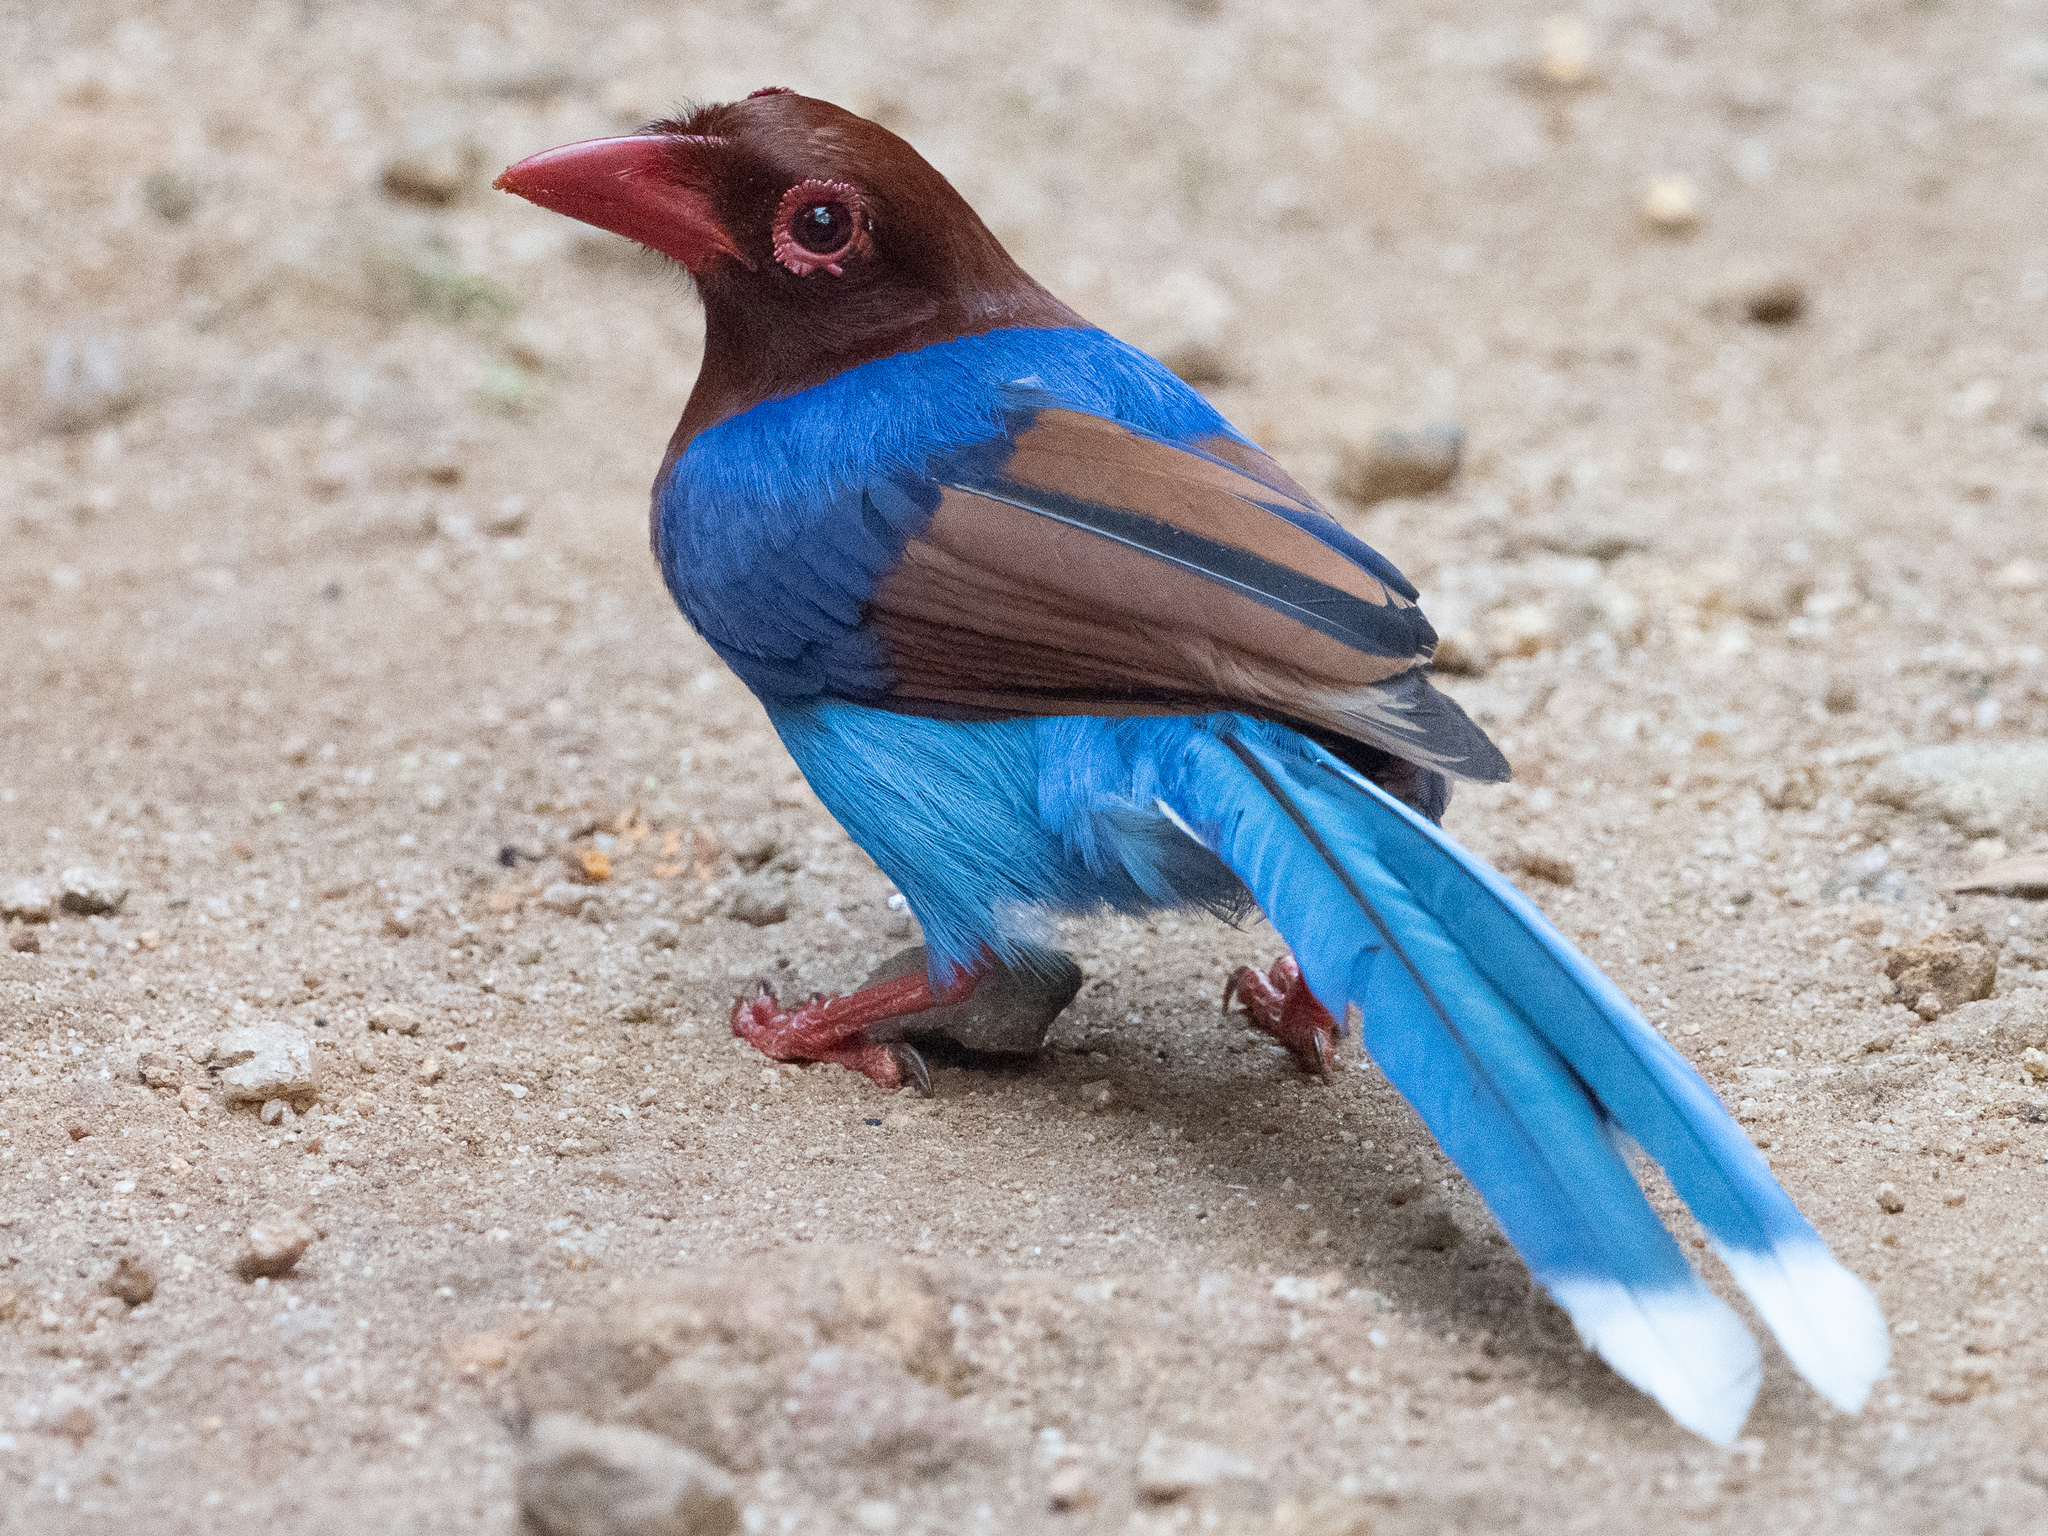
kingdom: Animalia
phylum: Chordata
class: Aves
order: Passeriformes
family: Corvidae
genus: Urocissa
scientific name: Urocissa ornata
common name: Sri lanka blue magpie
